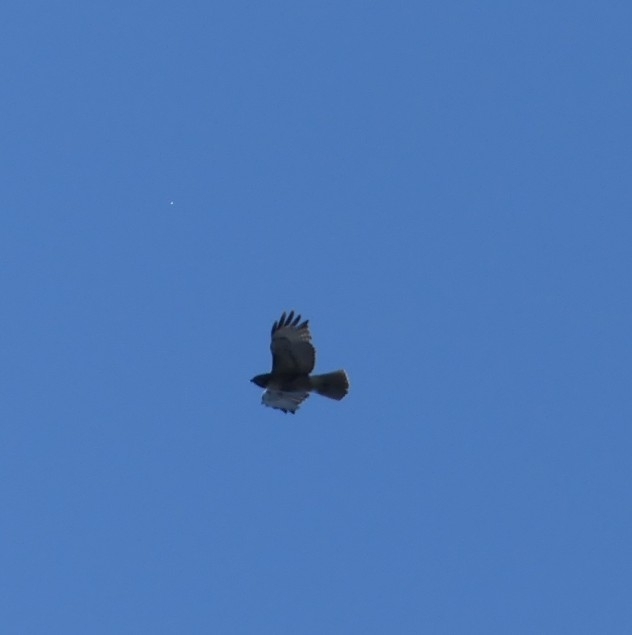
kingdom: Animalia
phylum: Chordata
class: Aves
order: Accipitriformes
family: Accipitridae
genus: Buteo
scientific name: Buteo jamaicensis
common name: Red-tailed hawk
